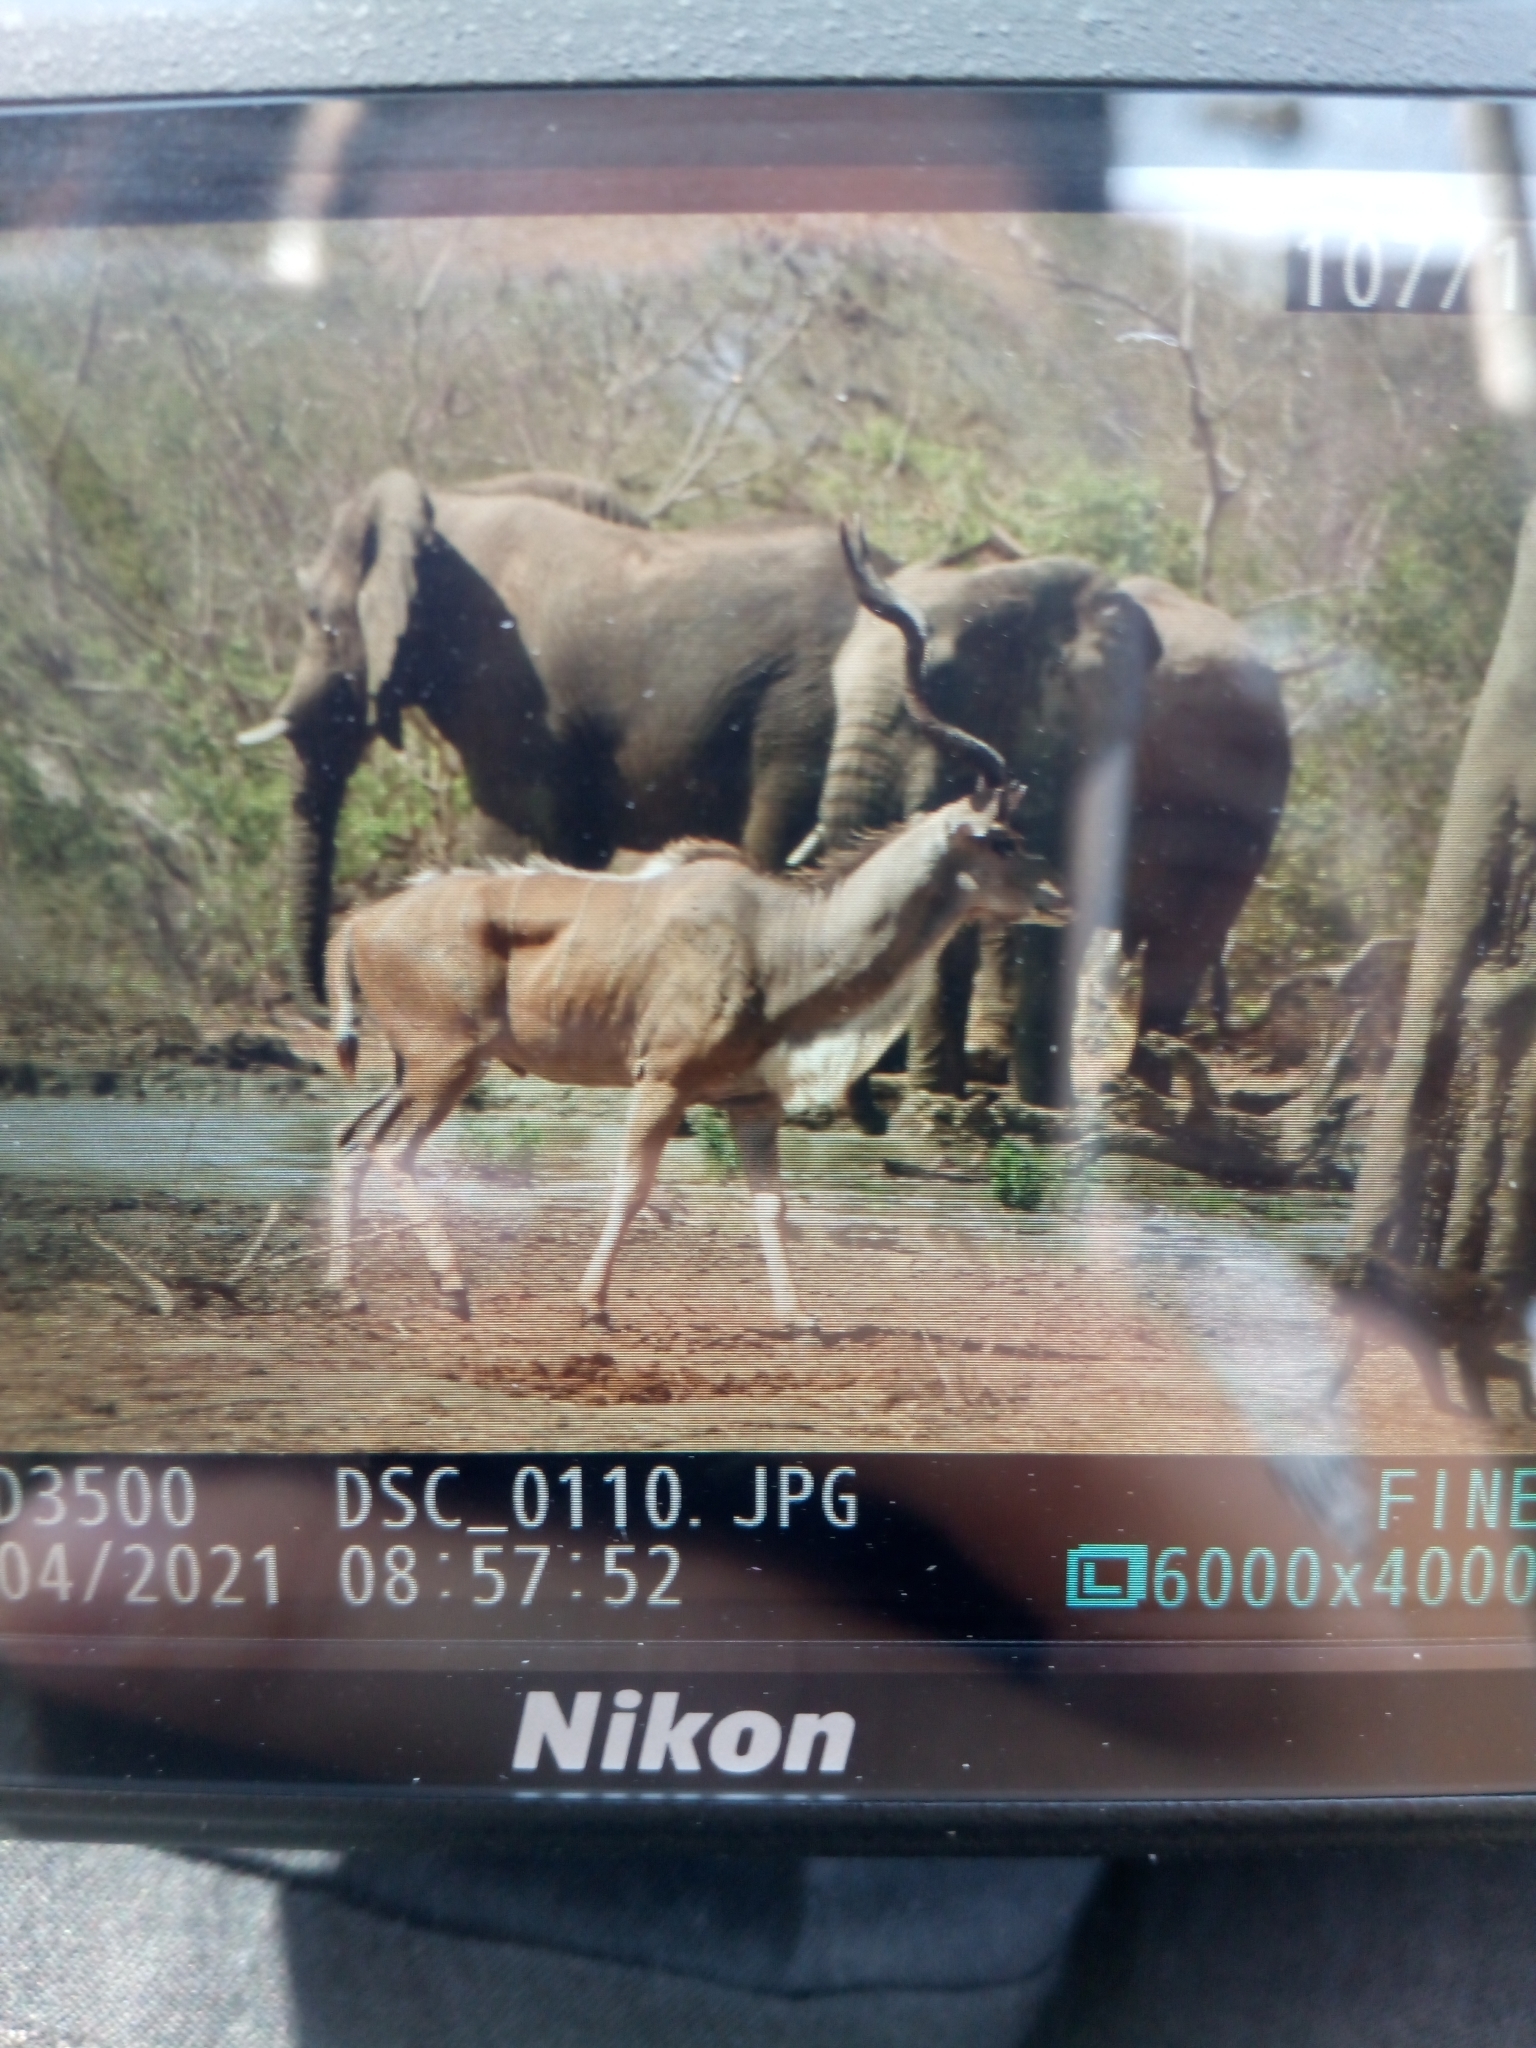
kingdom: Animalia
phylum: Chordata
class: Mammalia
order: Artiodactyla
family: Bovidae
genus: Tragelaphus
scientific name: Tragelaphus strepsiceros
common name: Greater kudu
